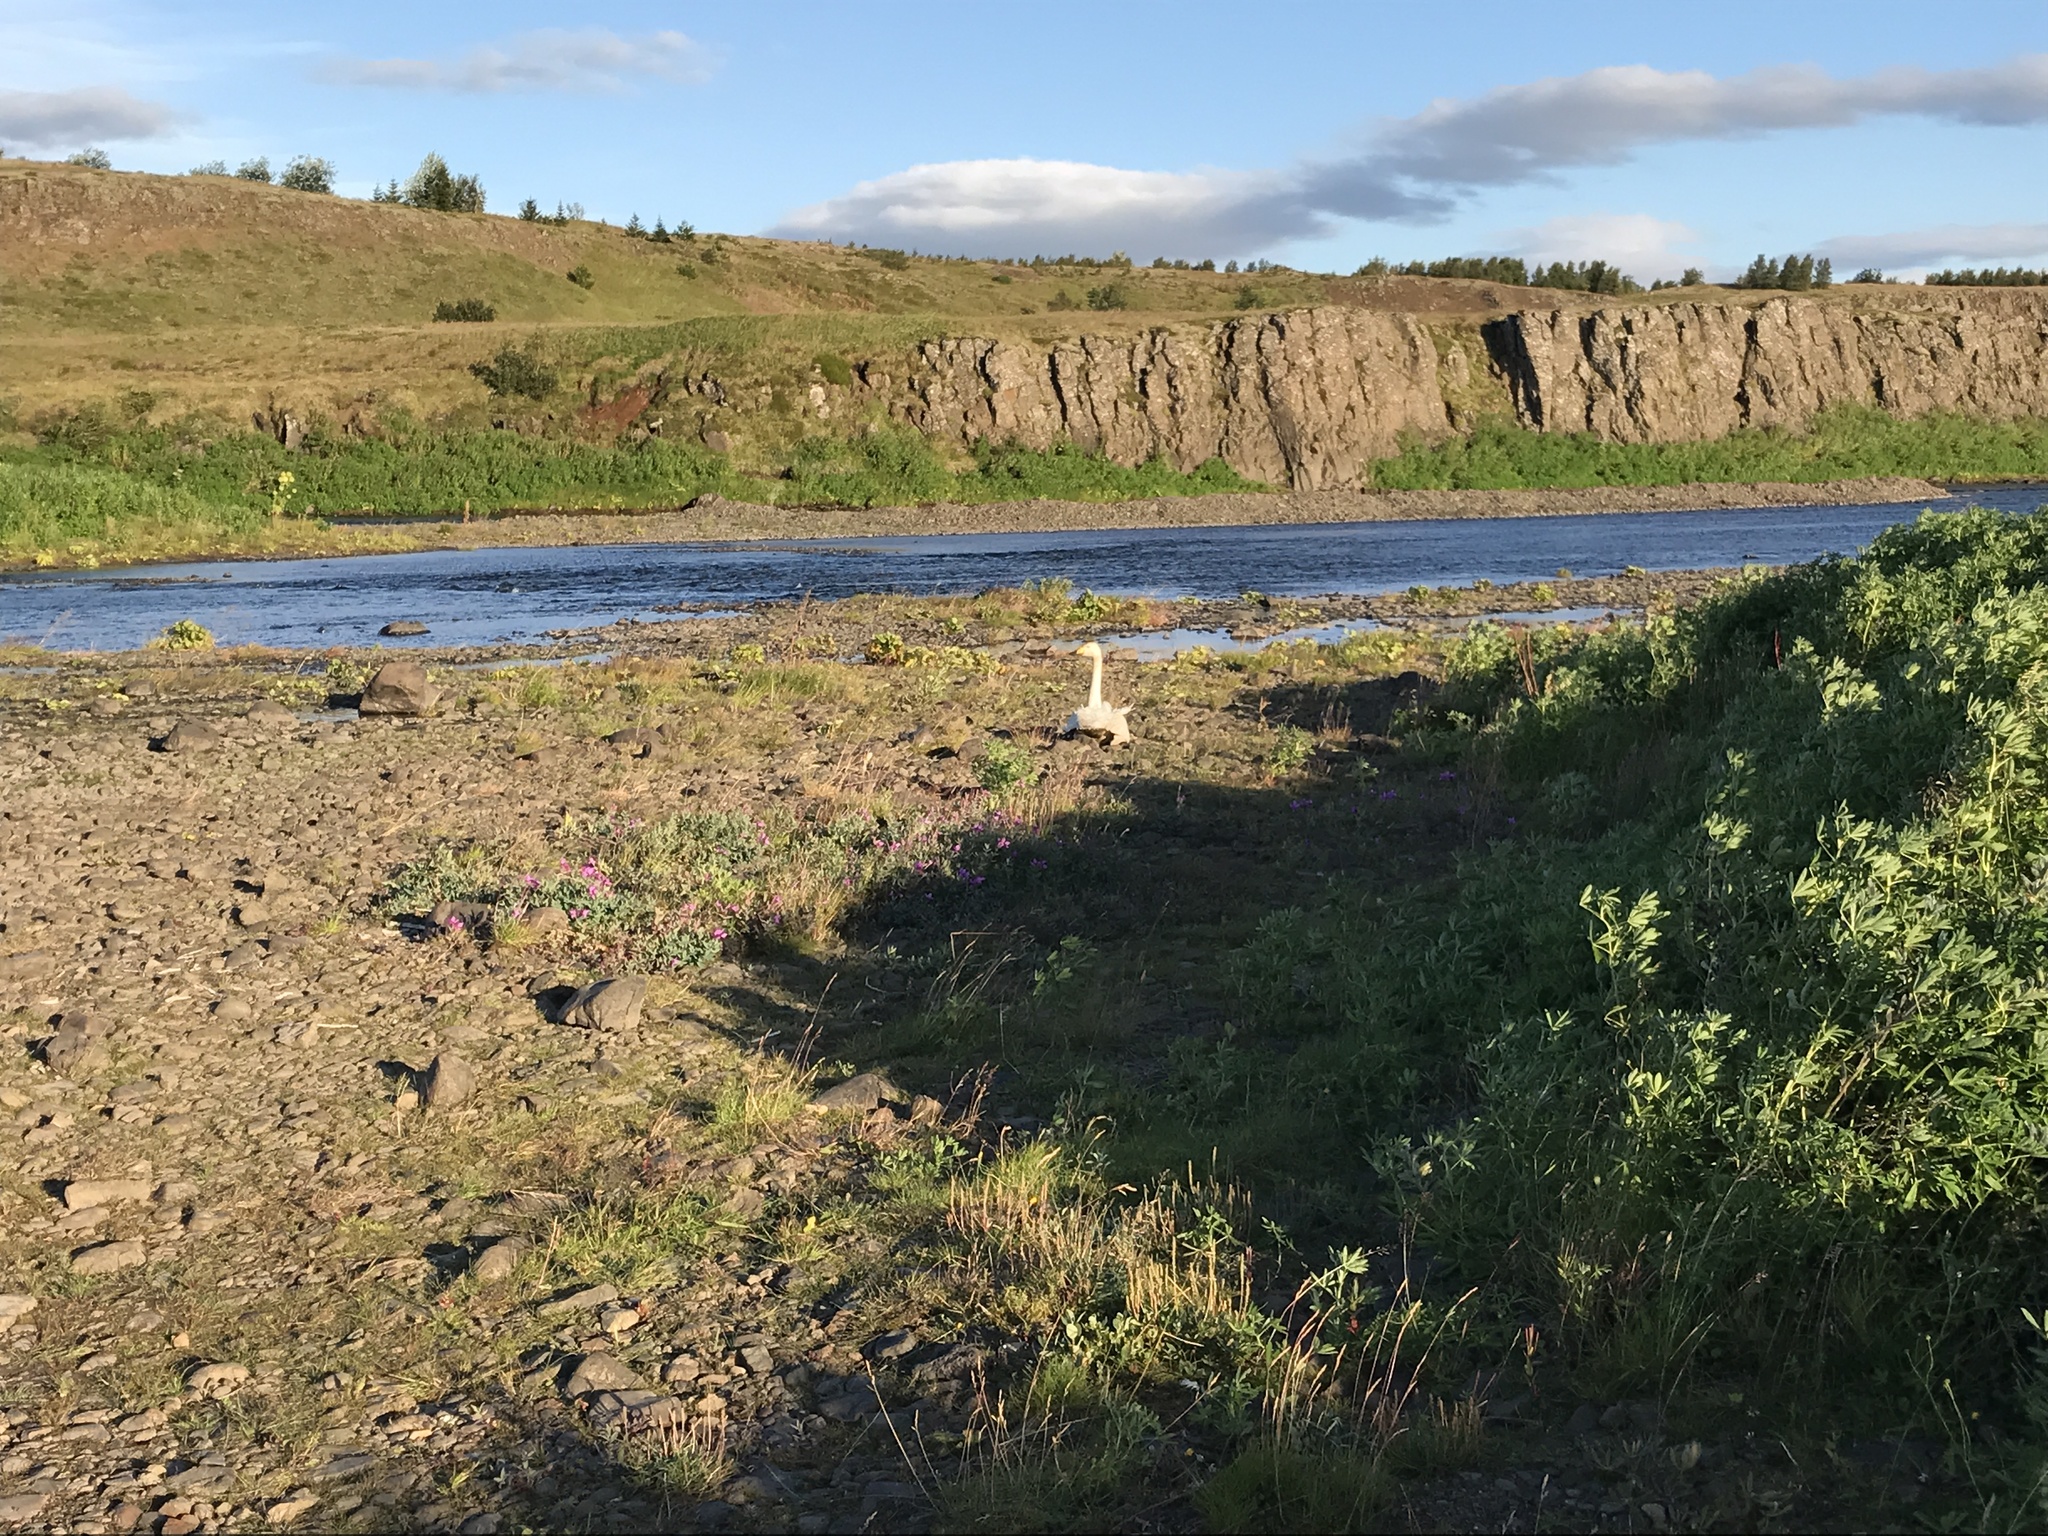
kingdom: Animalia
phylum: Chordata
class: Aves
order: Anseriformes
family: Anatidae
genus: Cygnus
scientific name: Cygnus cygnus
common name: Whooper swan
